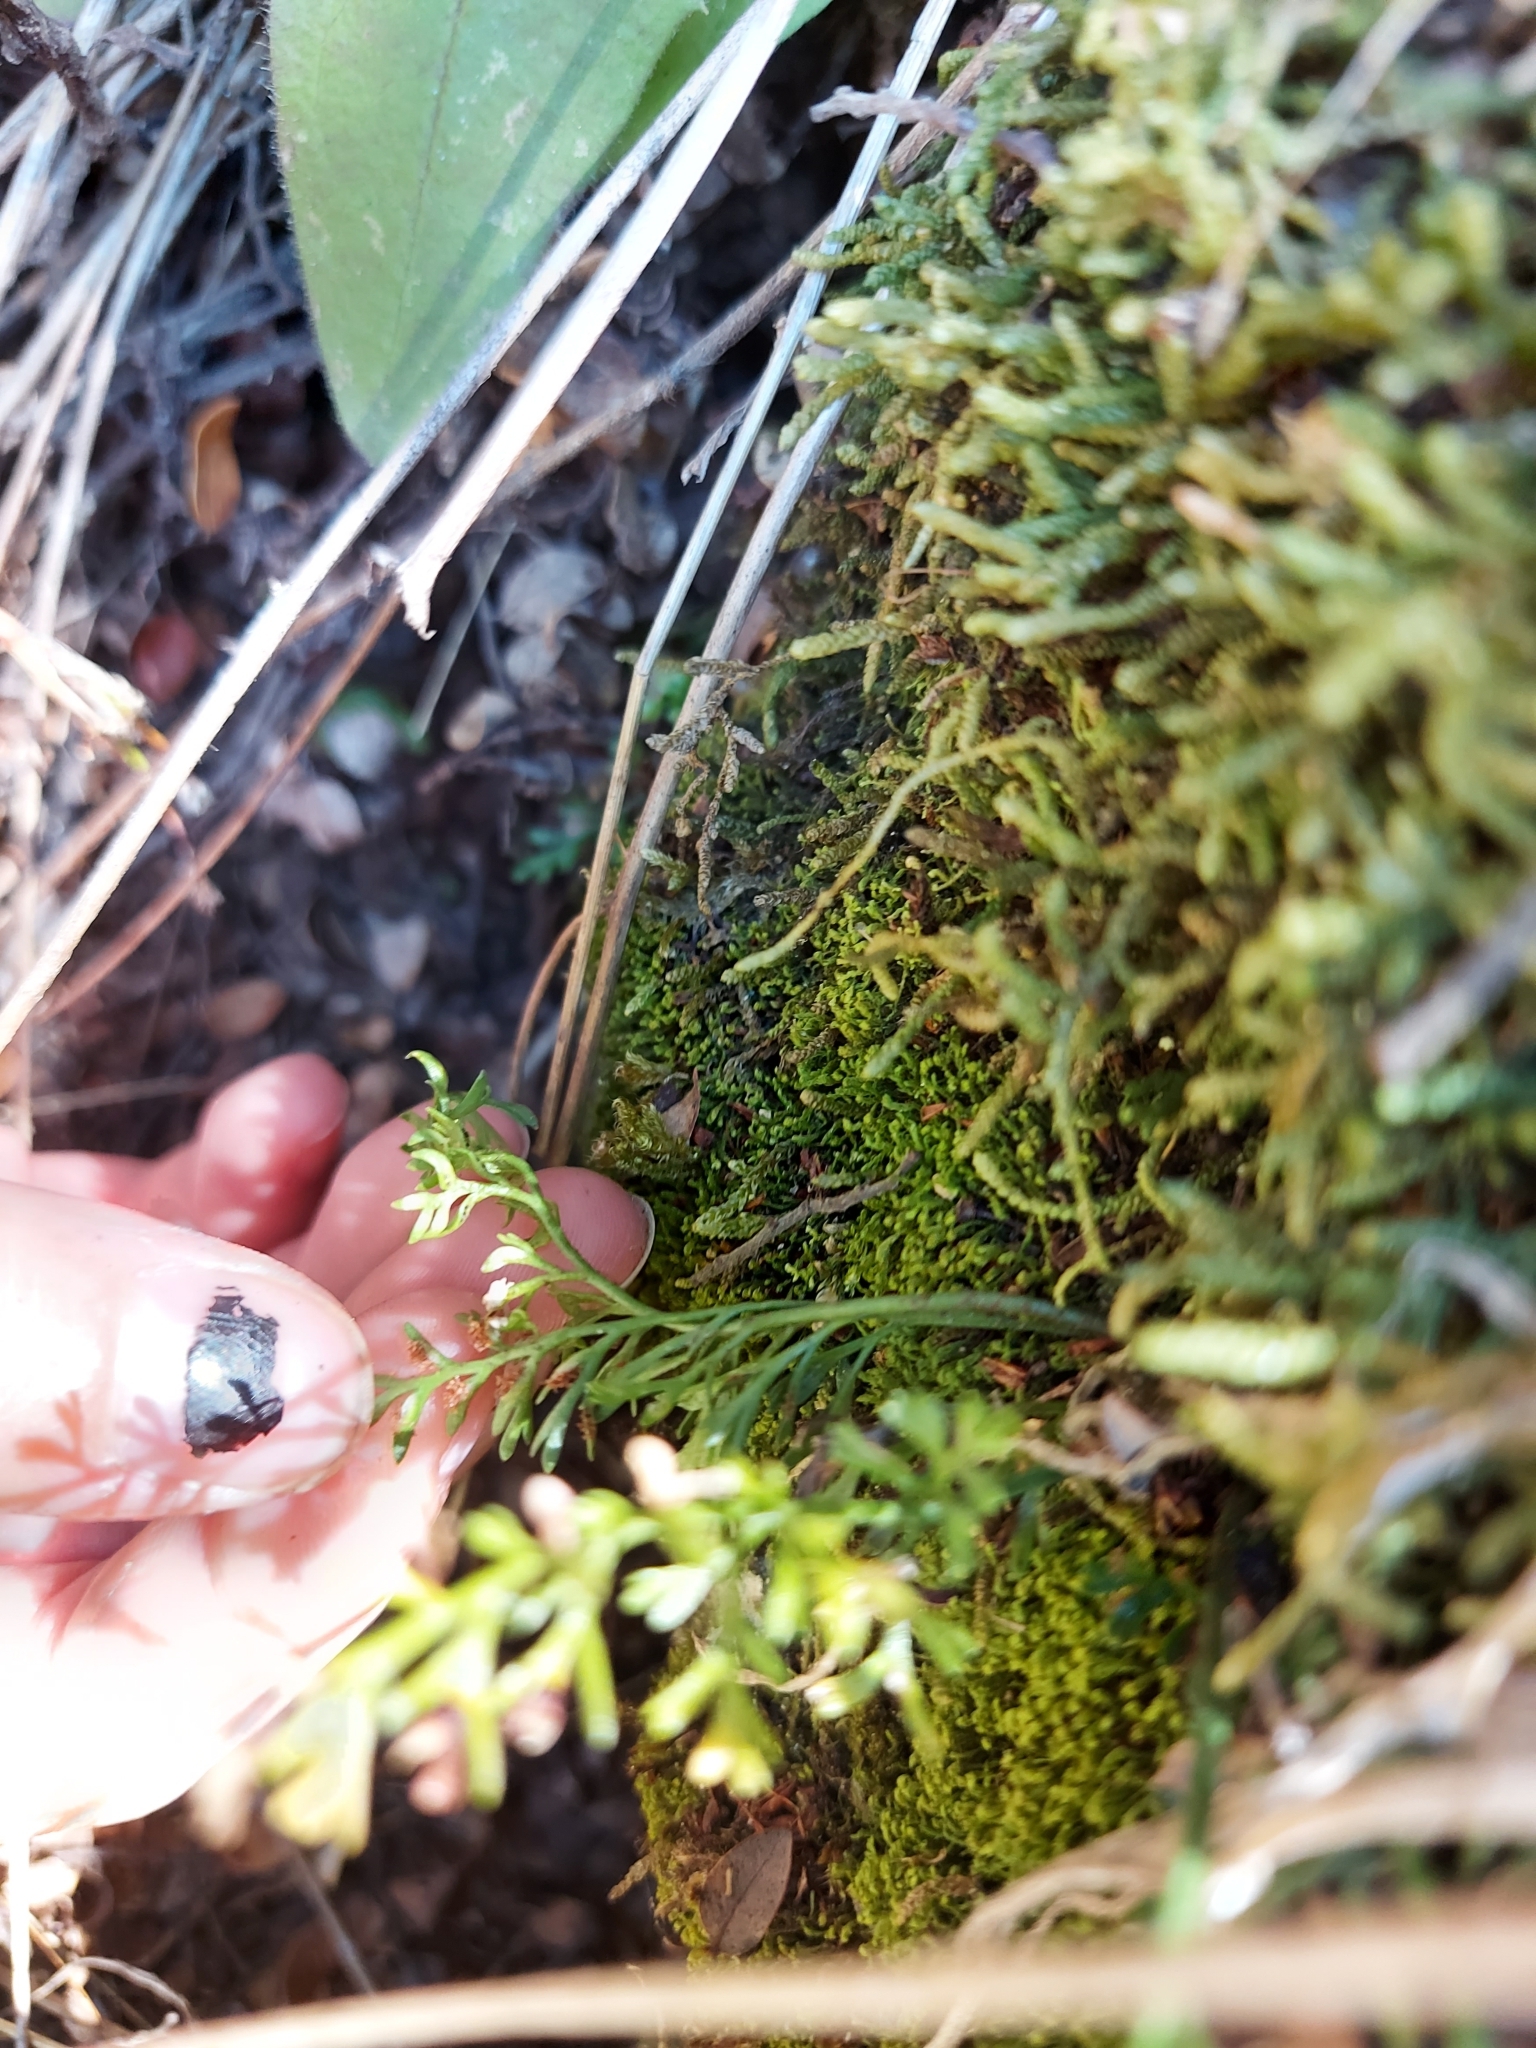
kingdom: Plantae
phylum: Tracheophyta
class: Polypodiopsida
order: Polypodiales
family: Aspleniaceae
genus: Asplenium
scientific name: Asplenium richardii
